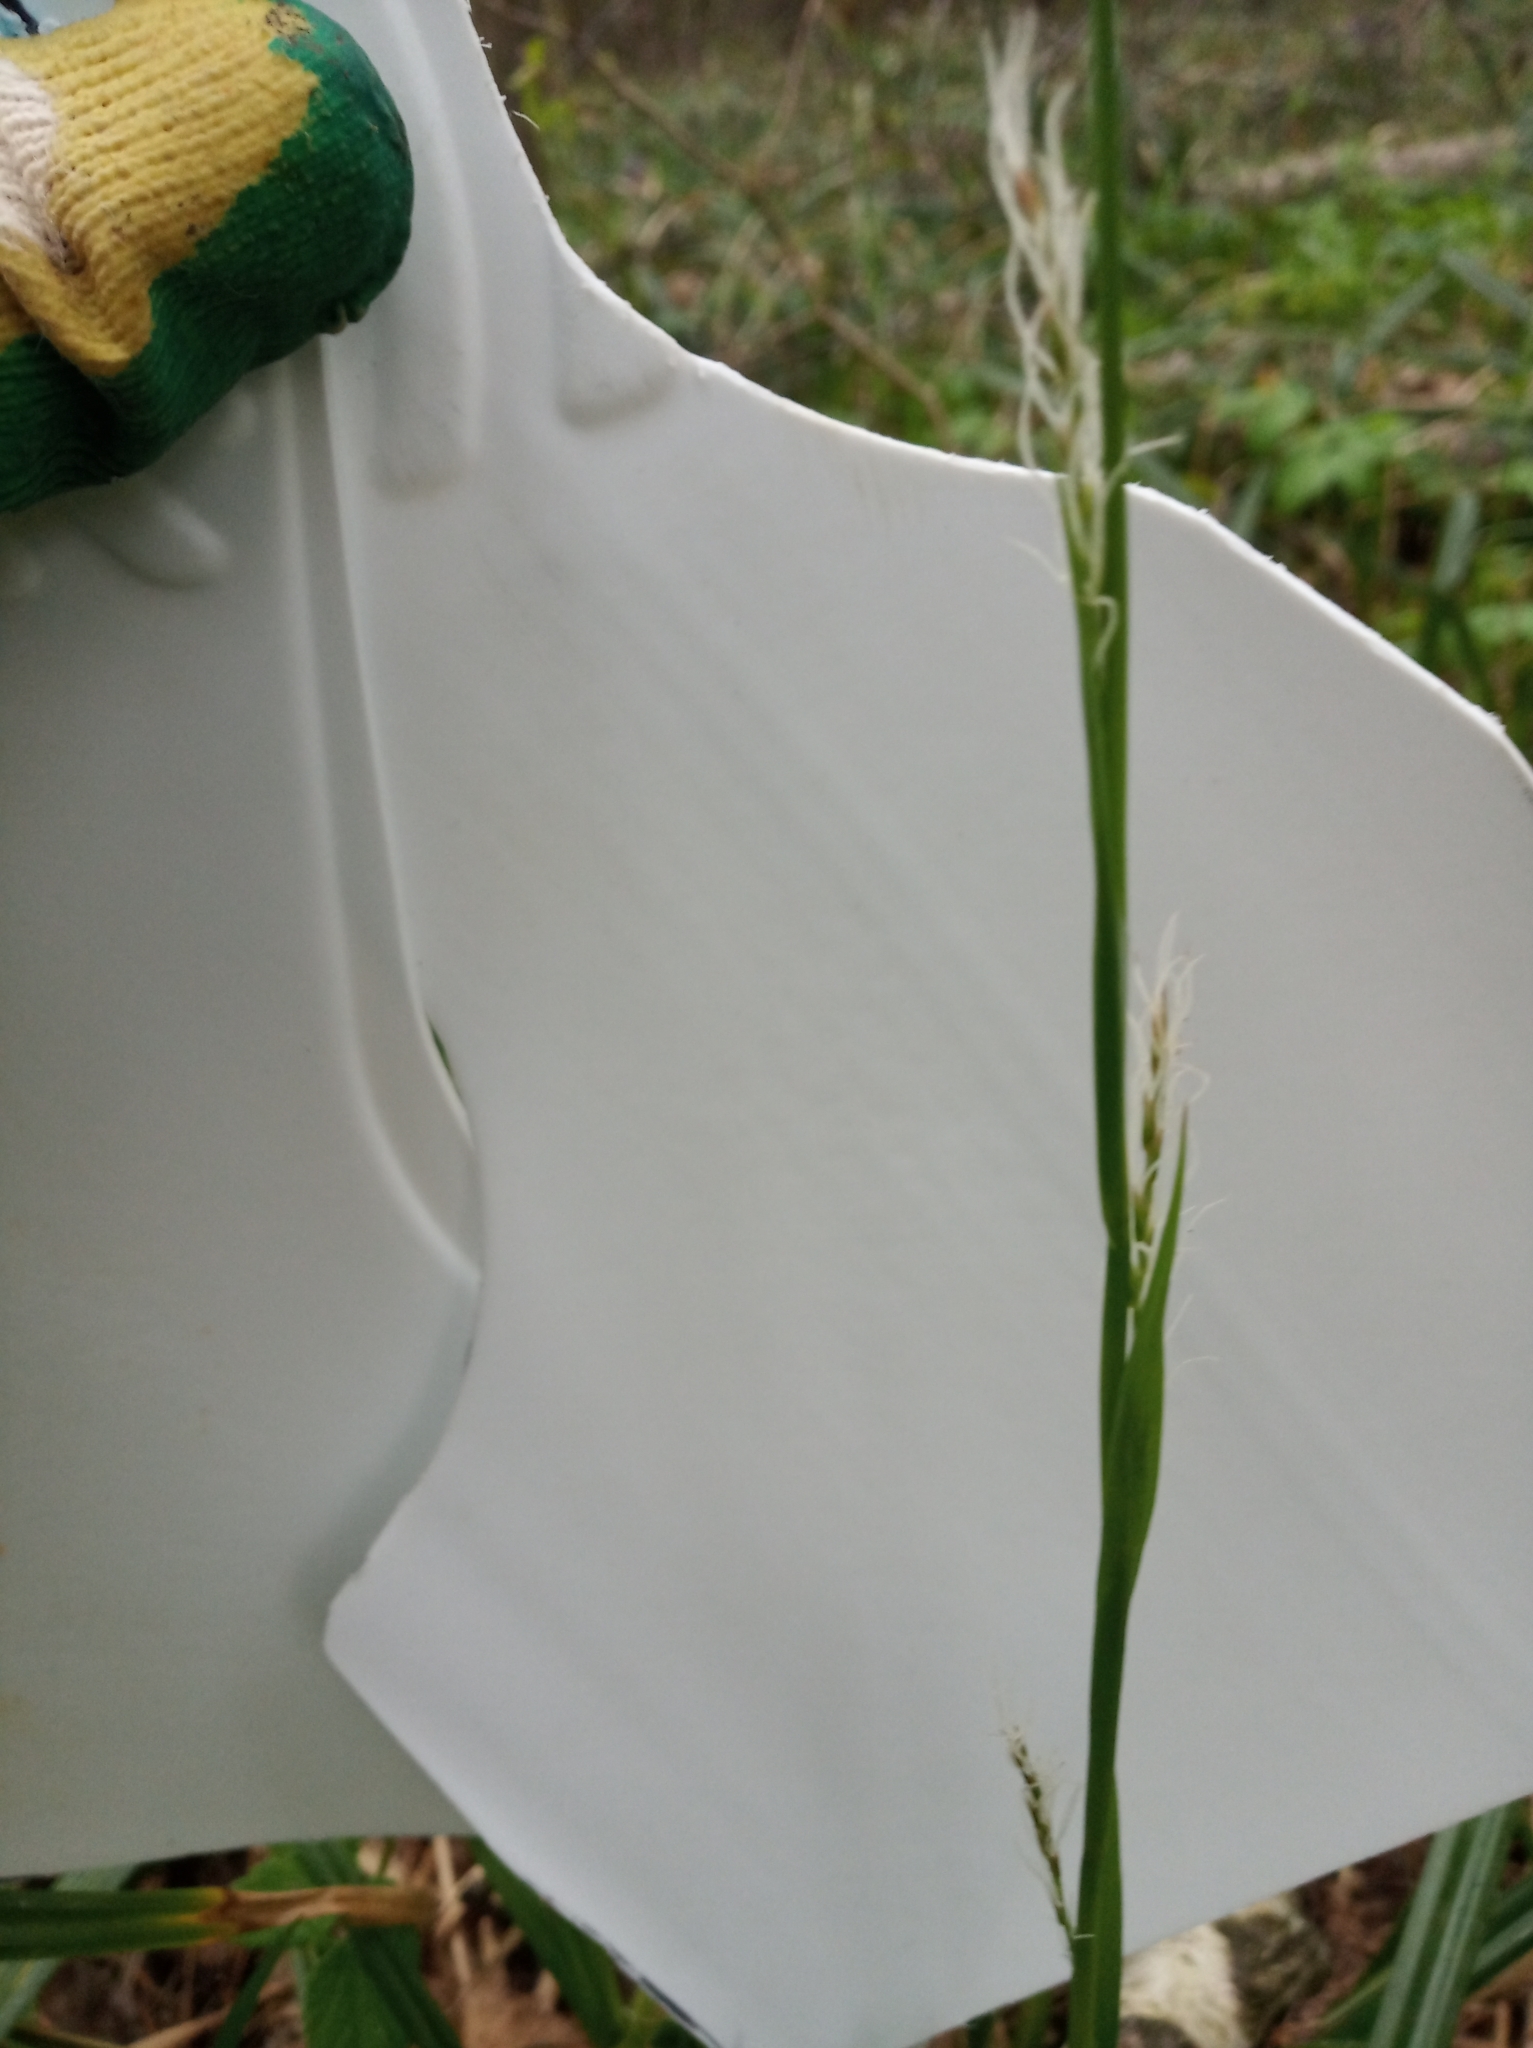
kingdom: Plantae
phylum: Tracheophyta
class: Liliopsida
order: Poales
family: Cyperaceae
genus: Carex
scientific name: Carex pilosa
